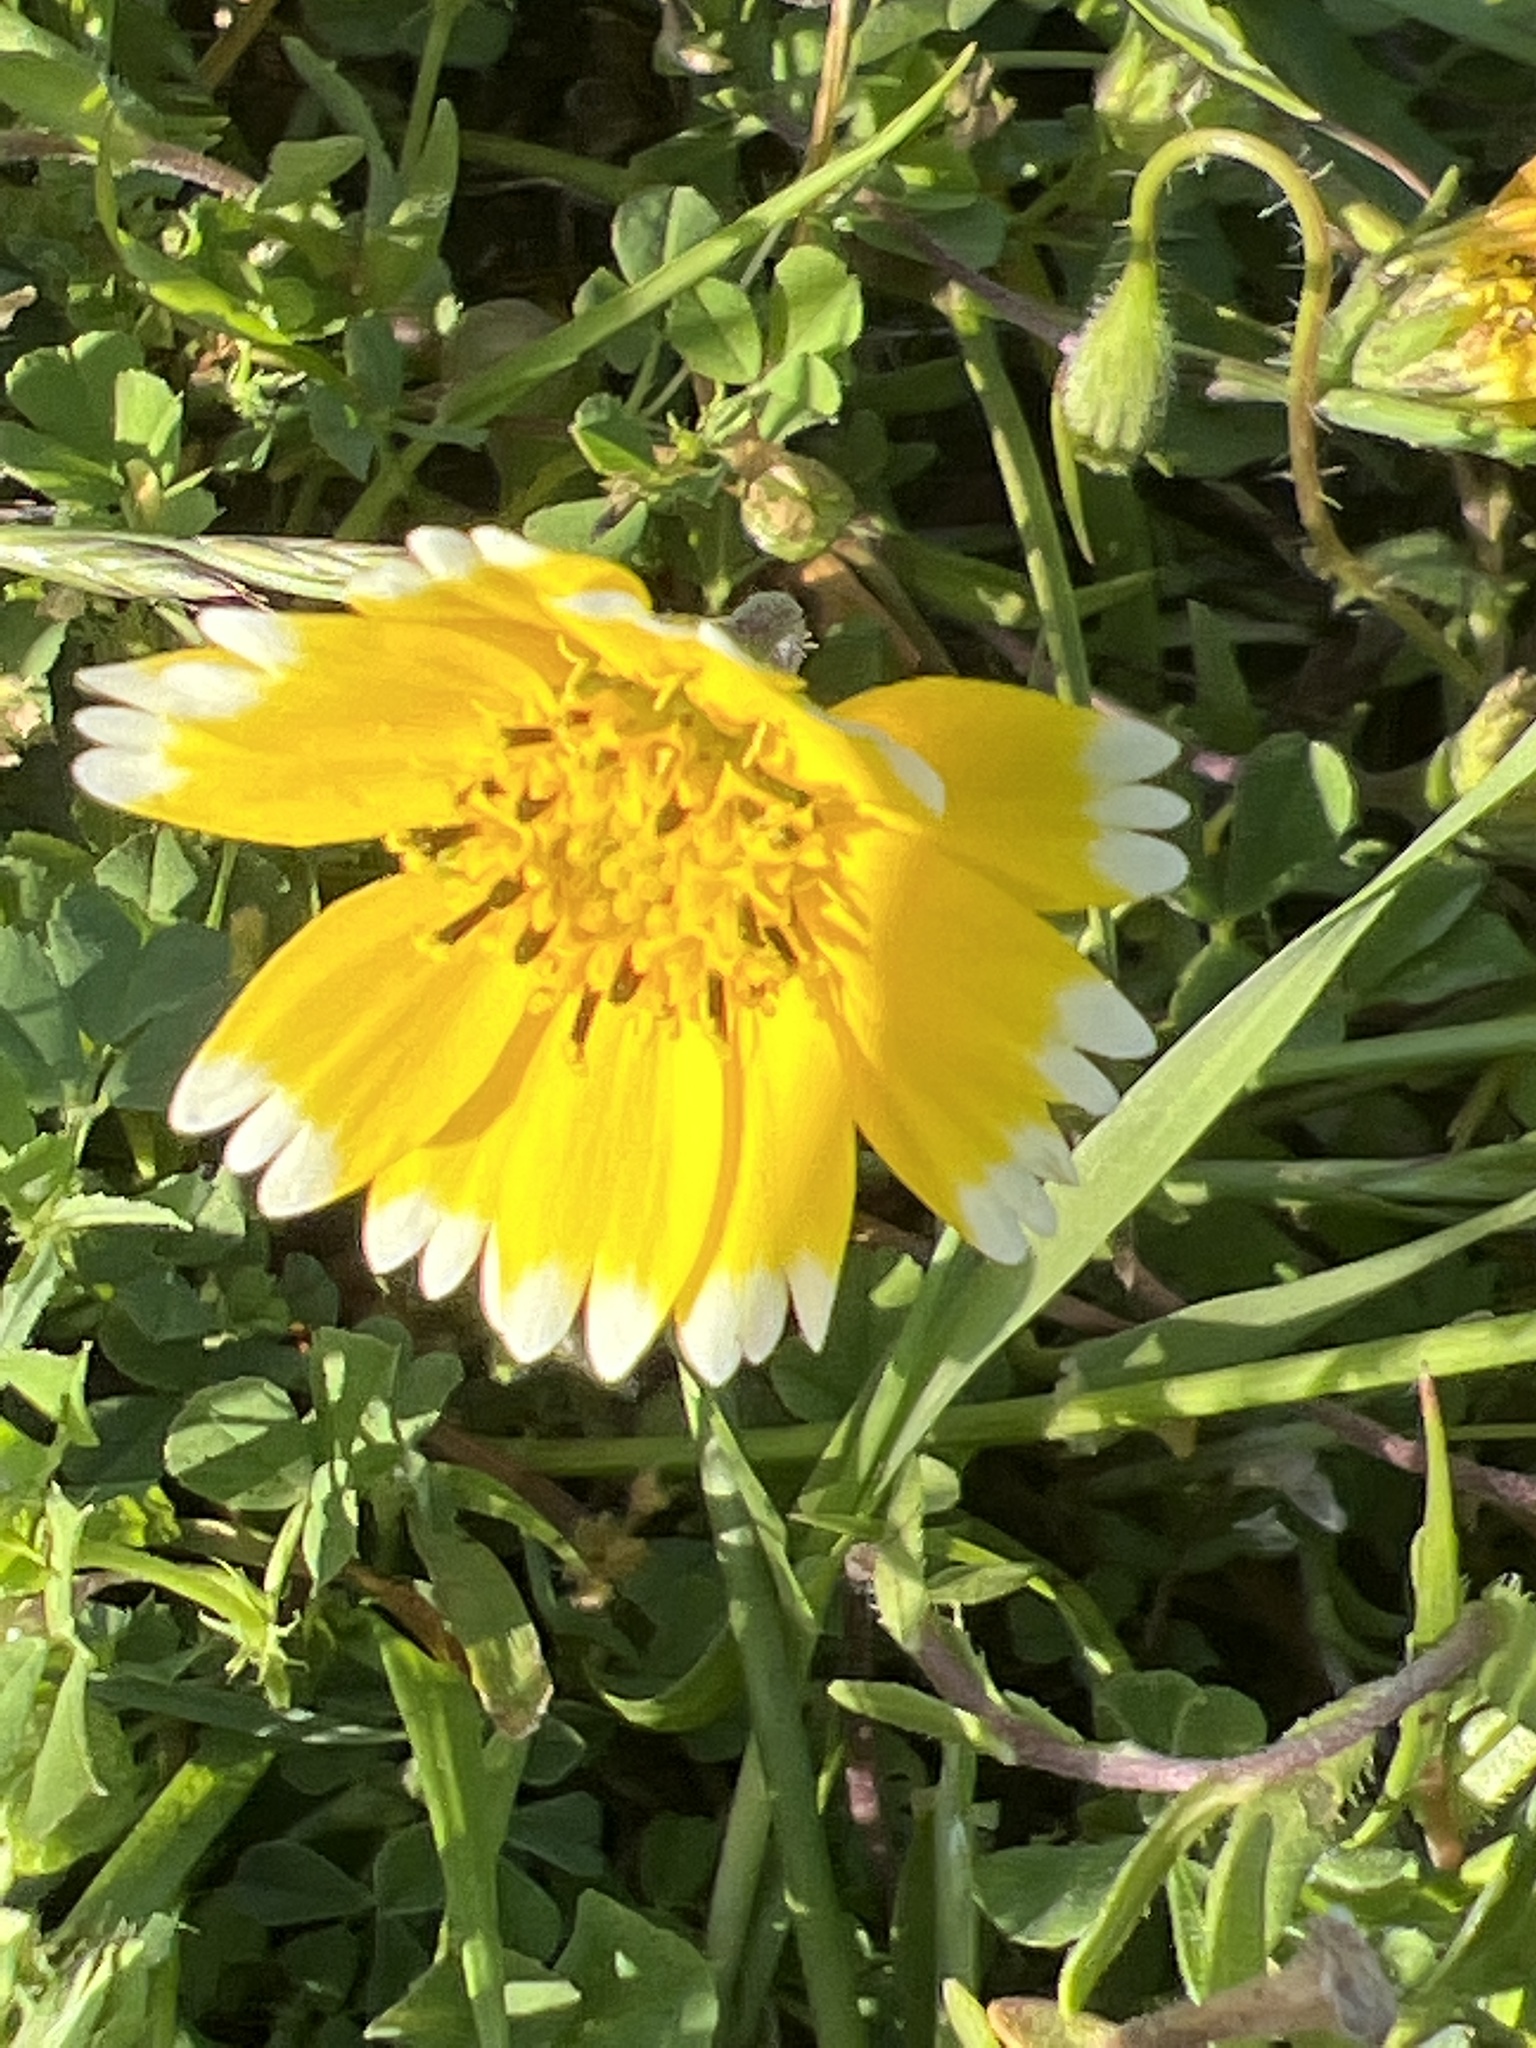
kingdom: Plantae
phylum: Tracheophyta
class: Magnoliopsida
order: Asterales
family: Asteraceae
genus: Layia
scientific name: Layia platyglossa
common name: Tidy-tips
